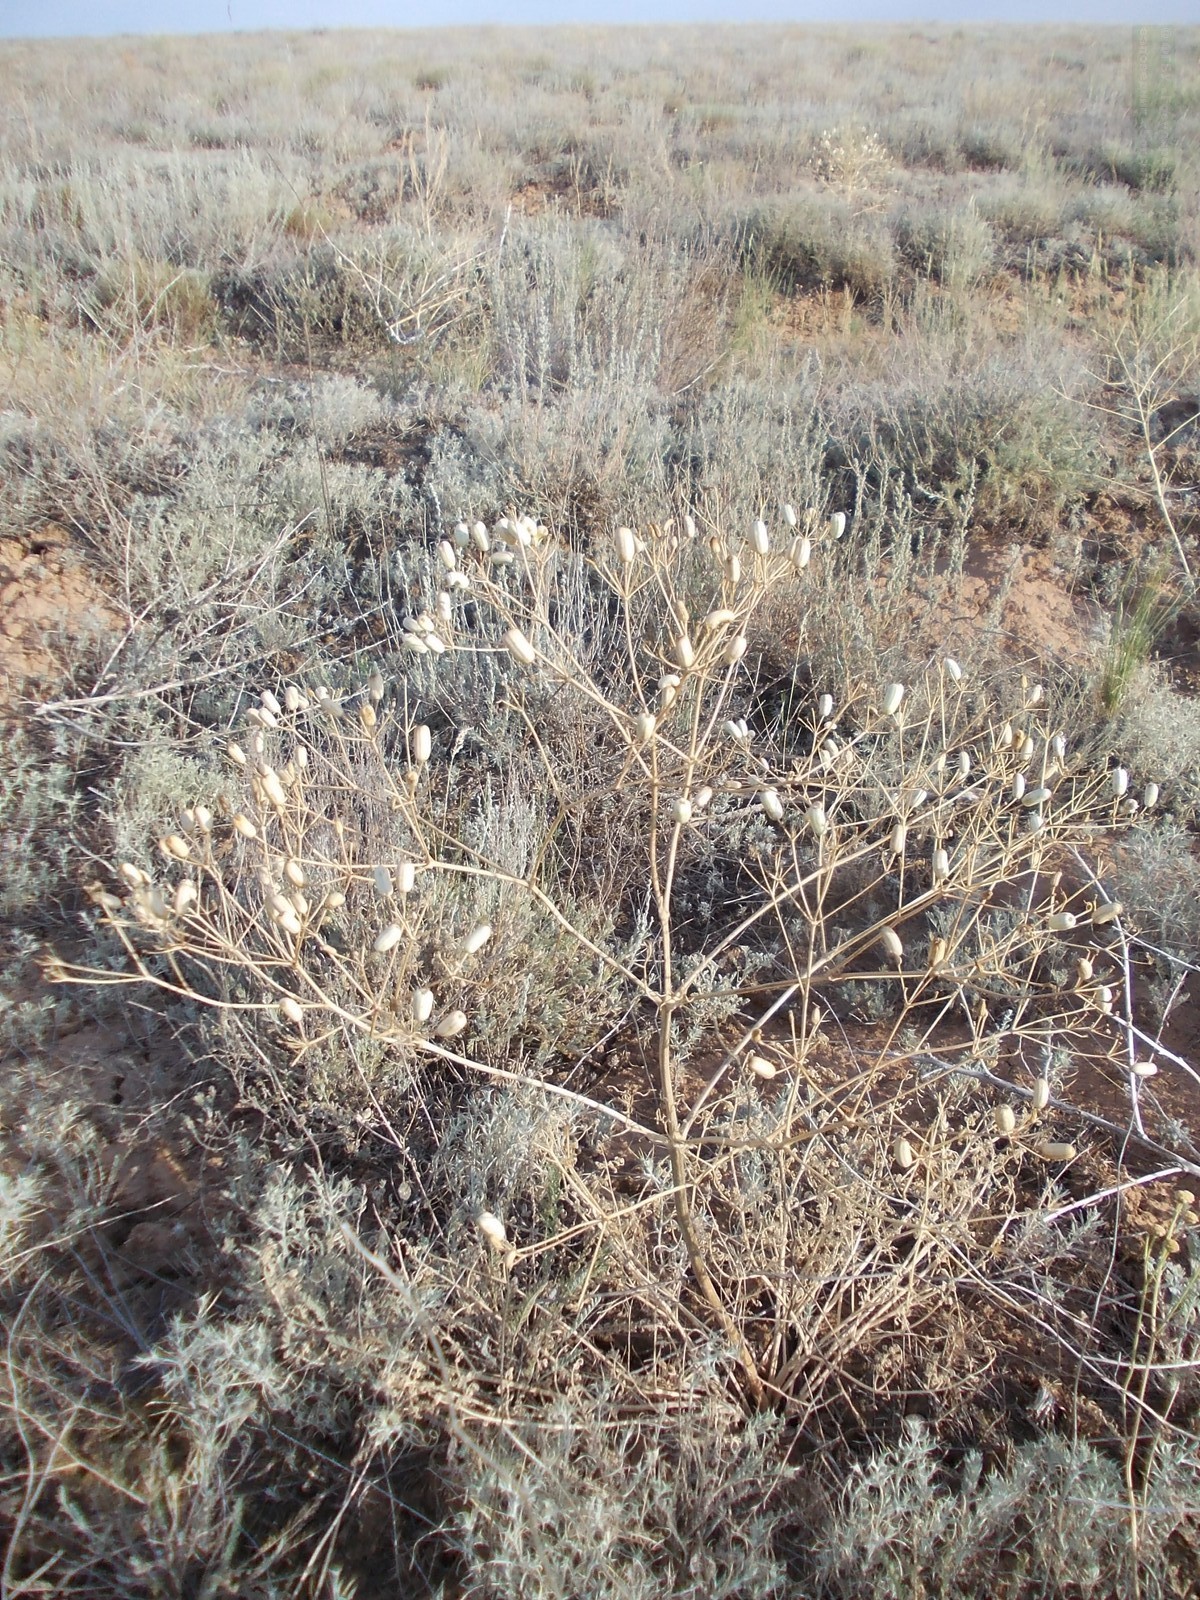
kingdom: Plantae
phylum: Tracheophyta
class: Magnoliopsida
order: Apiales
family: Apiaceae
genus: Prangos
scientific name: Prangos odontalgica
